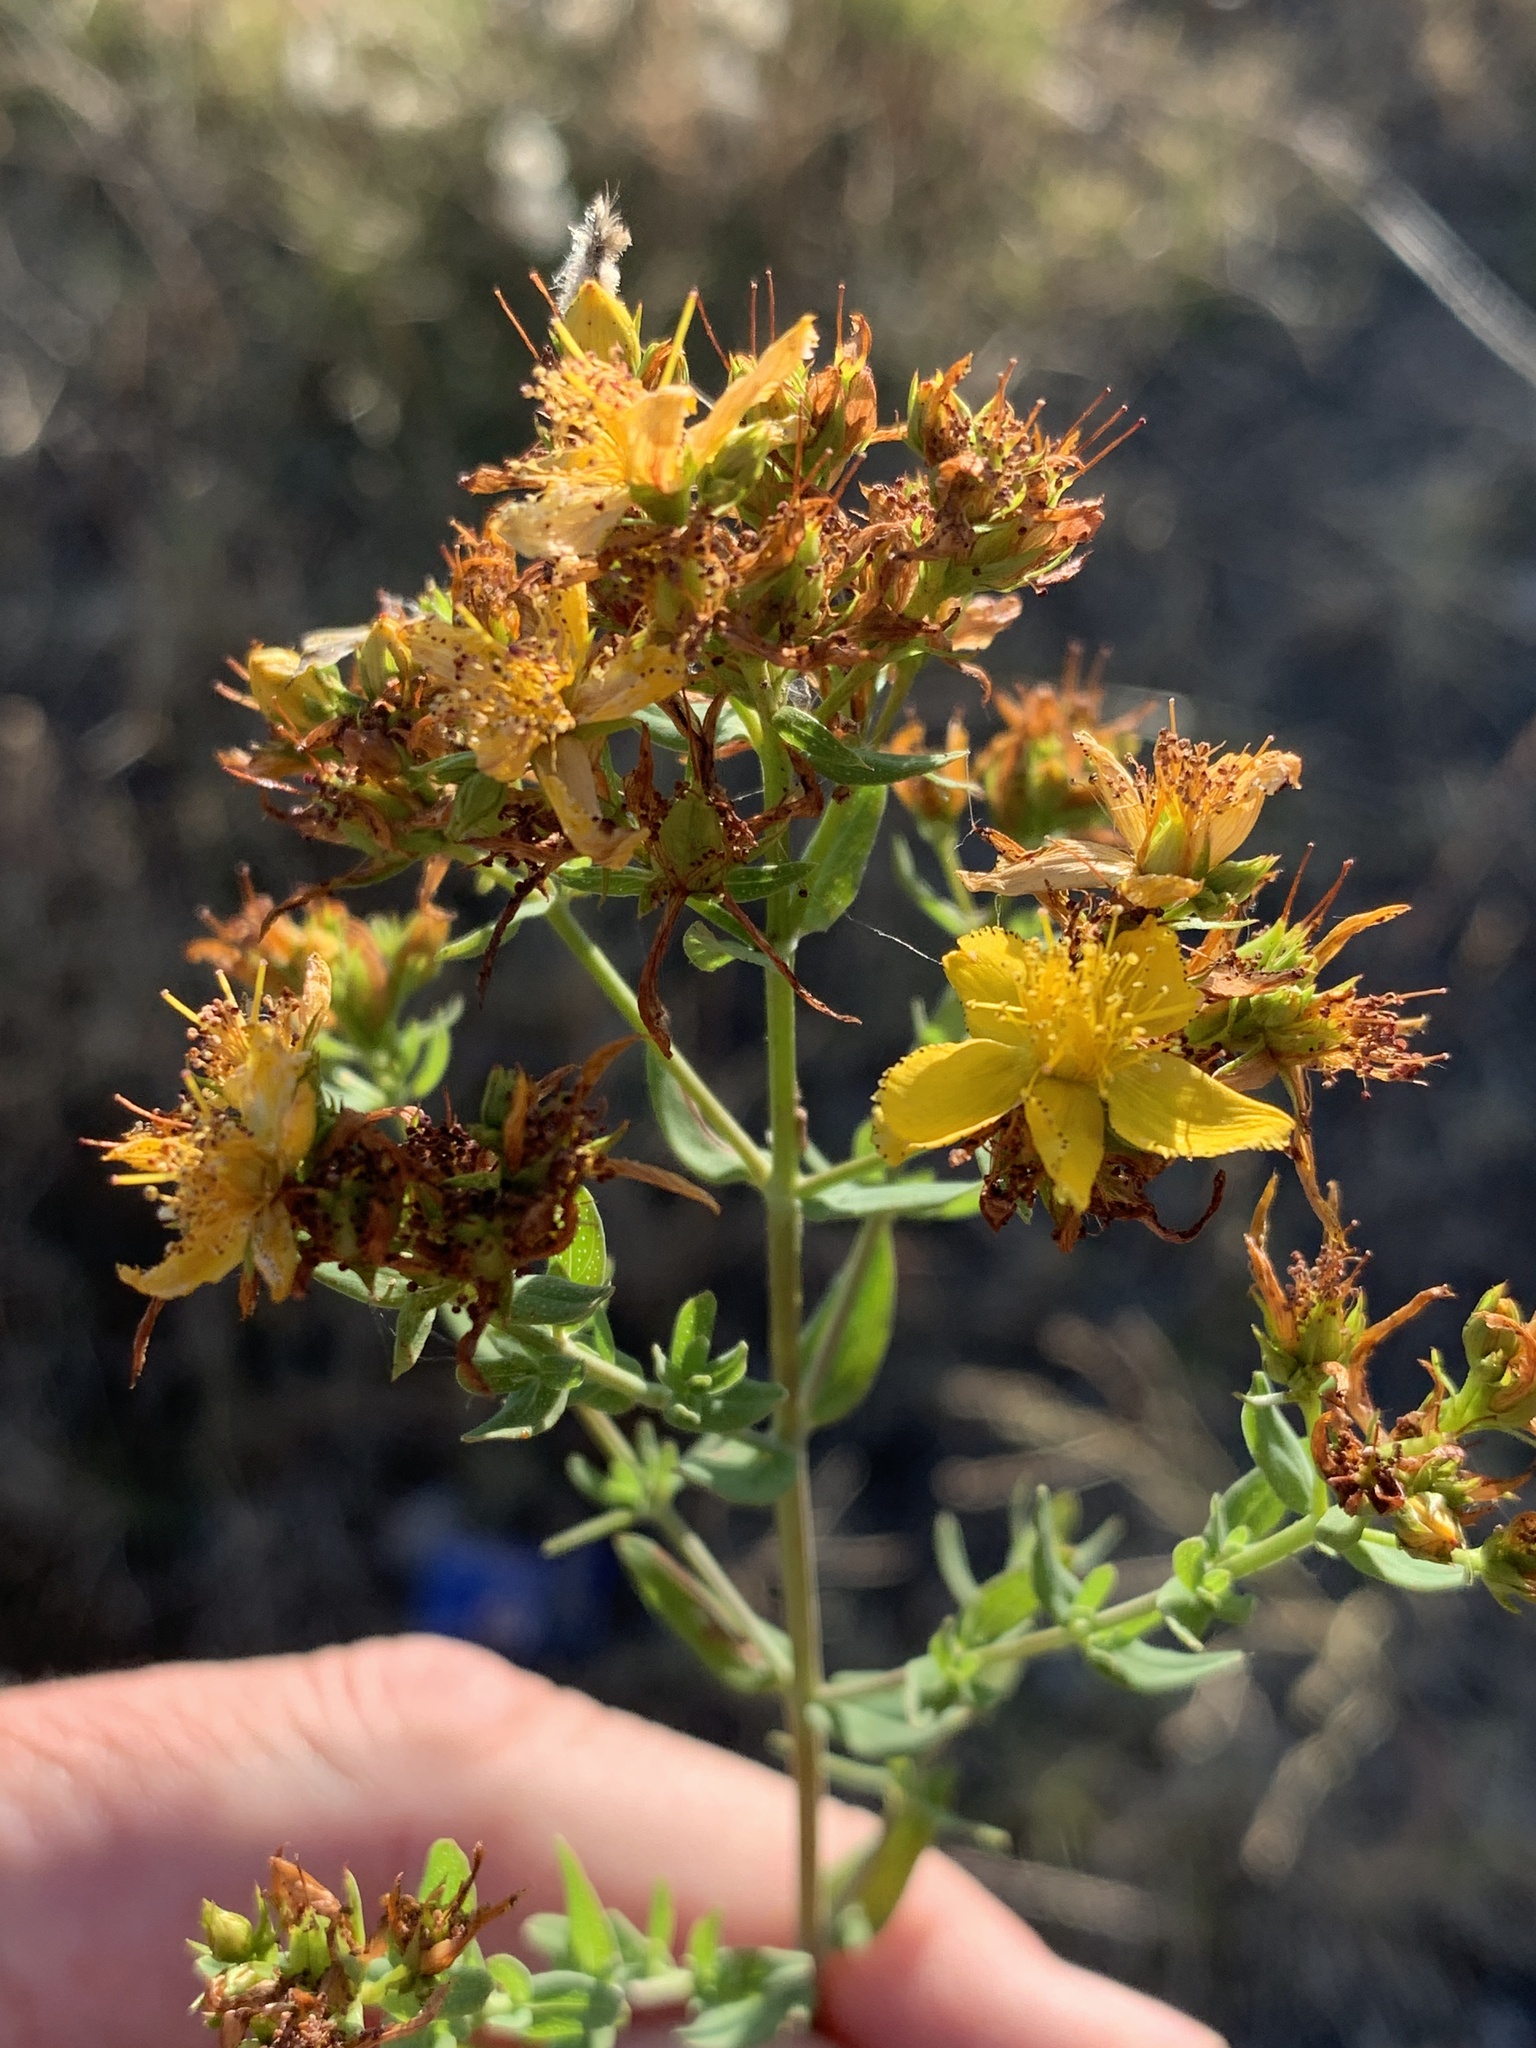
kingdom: Plantae
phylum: Tracheophyta
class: Magnoliopsida
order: Malpighiales
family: Hypericaceae
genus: Hypericum
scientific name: Hypericum perforatum
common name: Common st. johnswort
